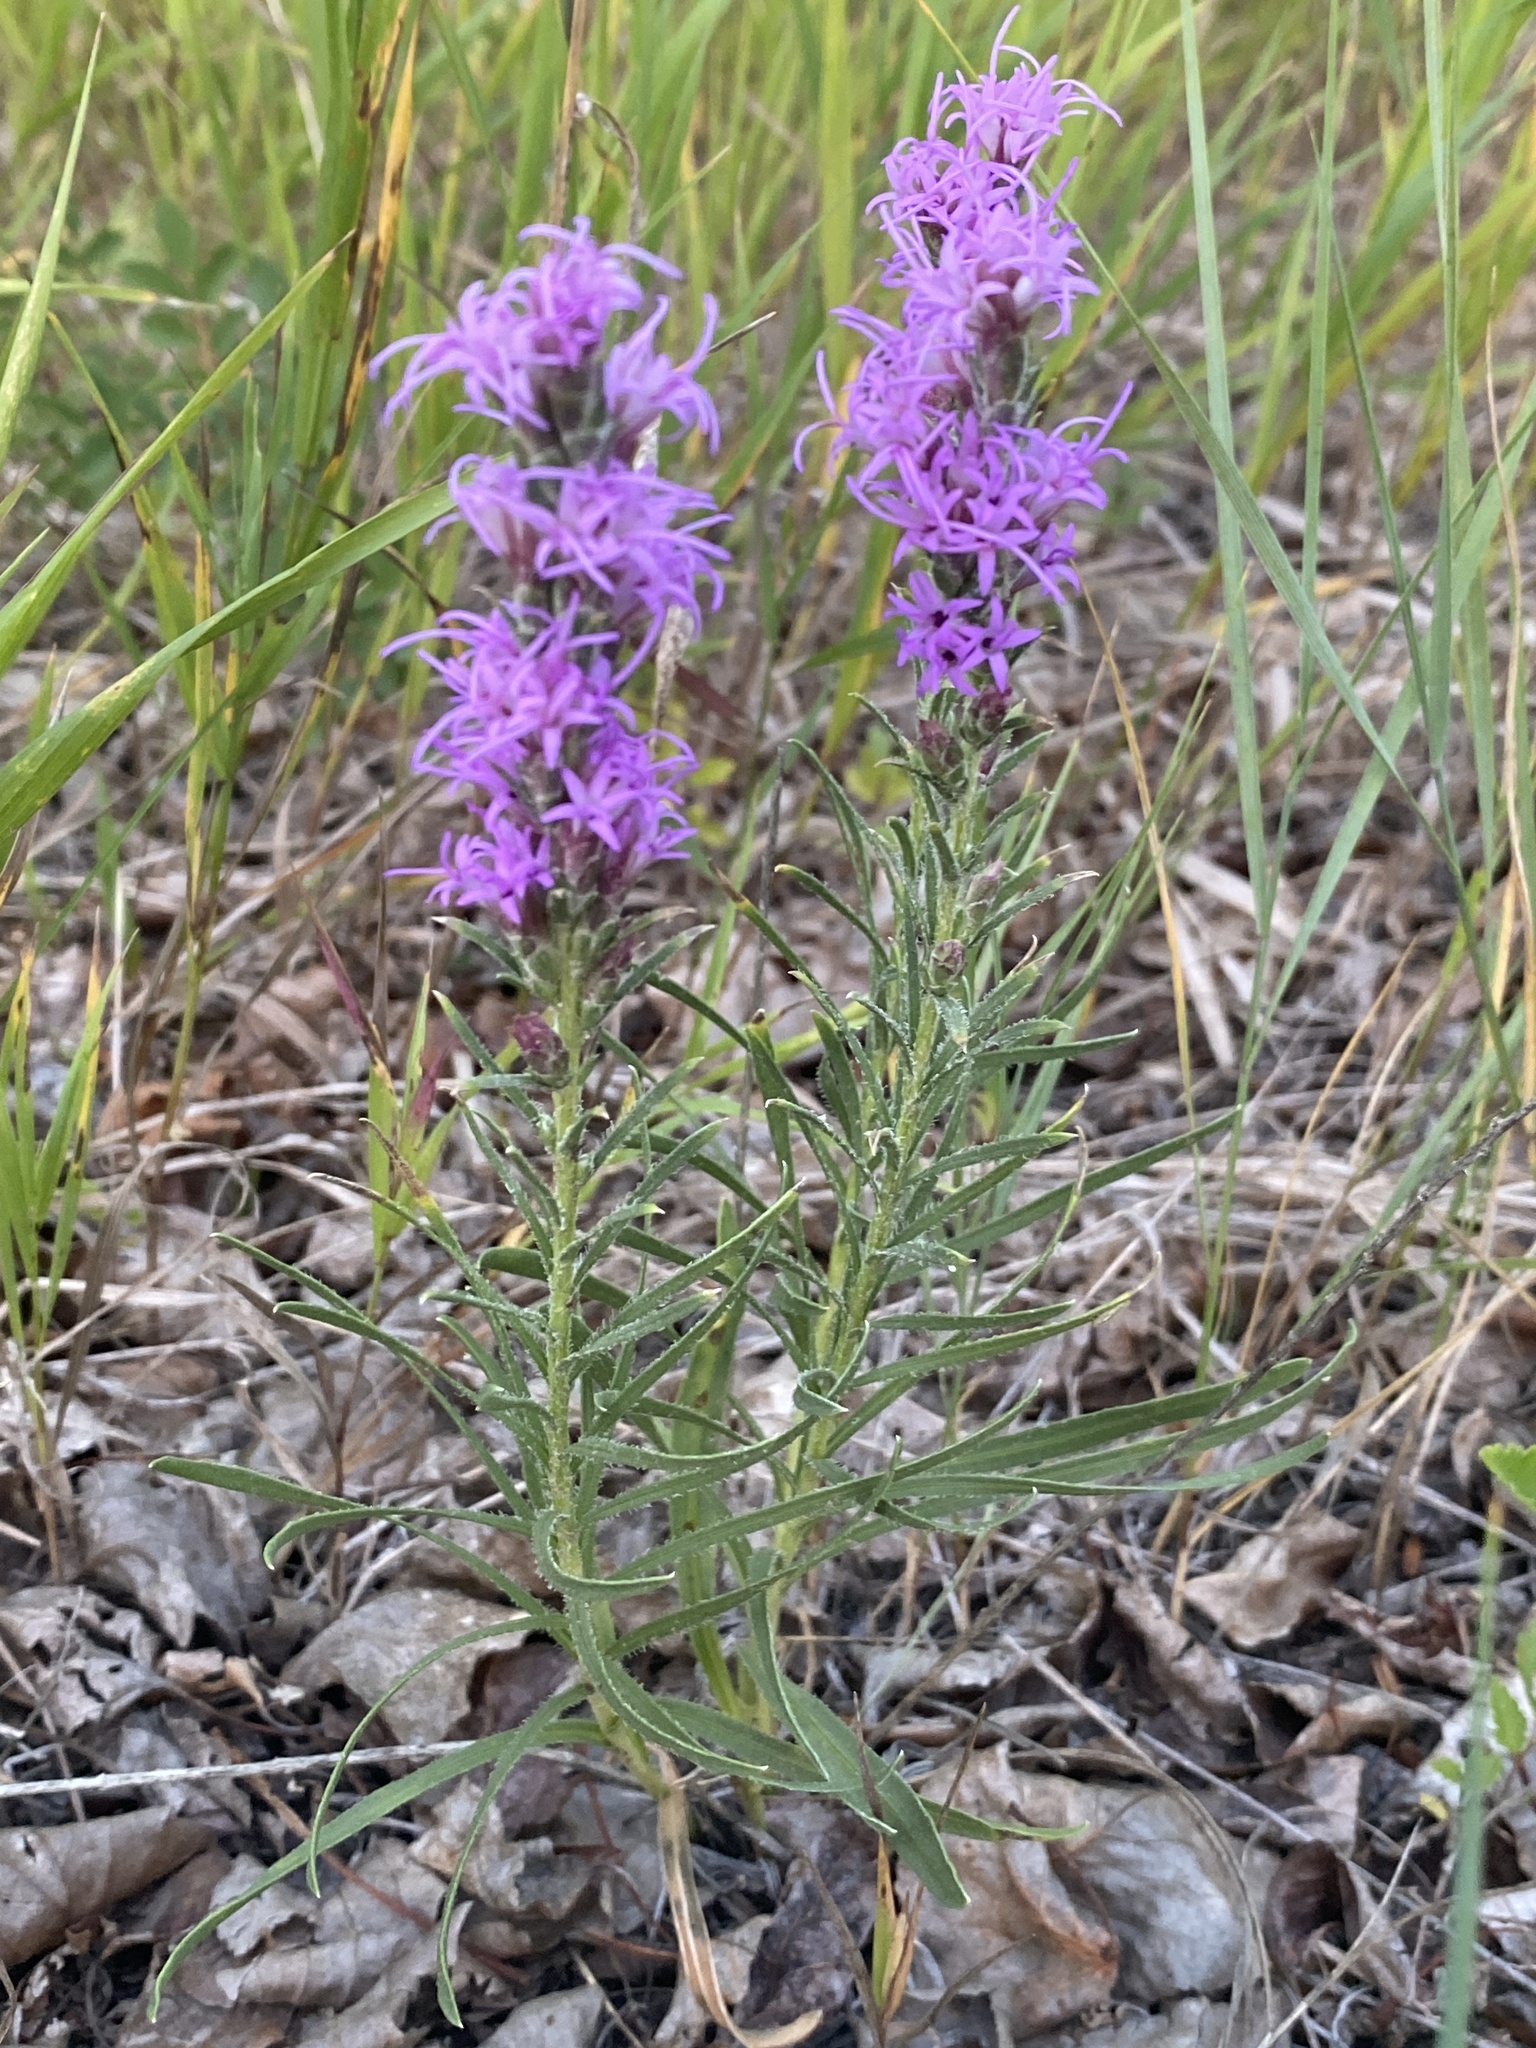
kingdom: Plantae
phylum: Tracheophyta
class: Magnoliopsida
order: Asterales
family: Asteraceae
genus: Liatris
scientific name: Liatris punctata
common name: Dotted gayfeather
